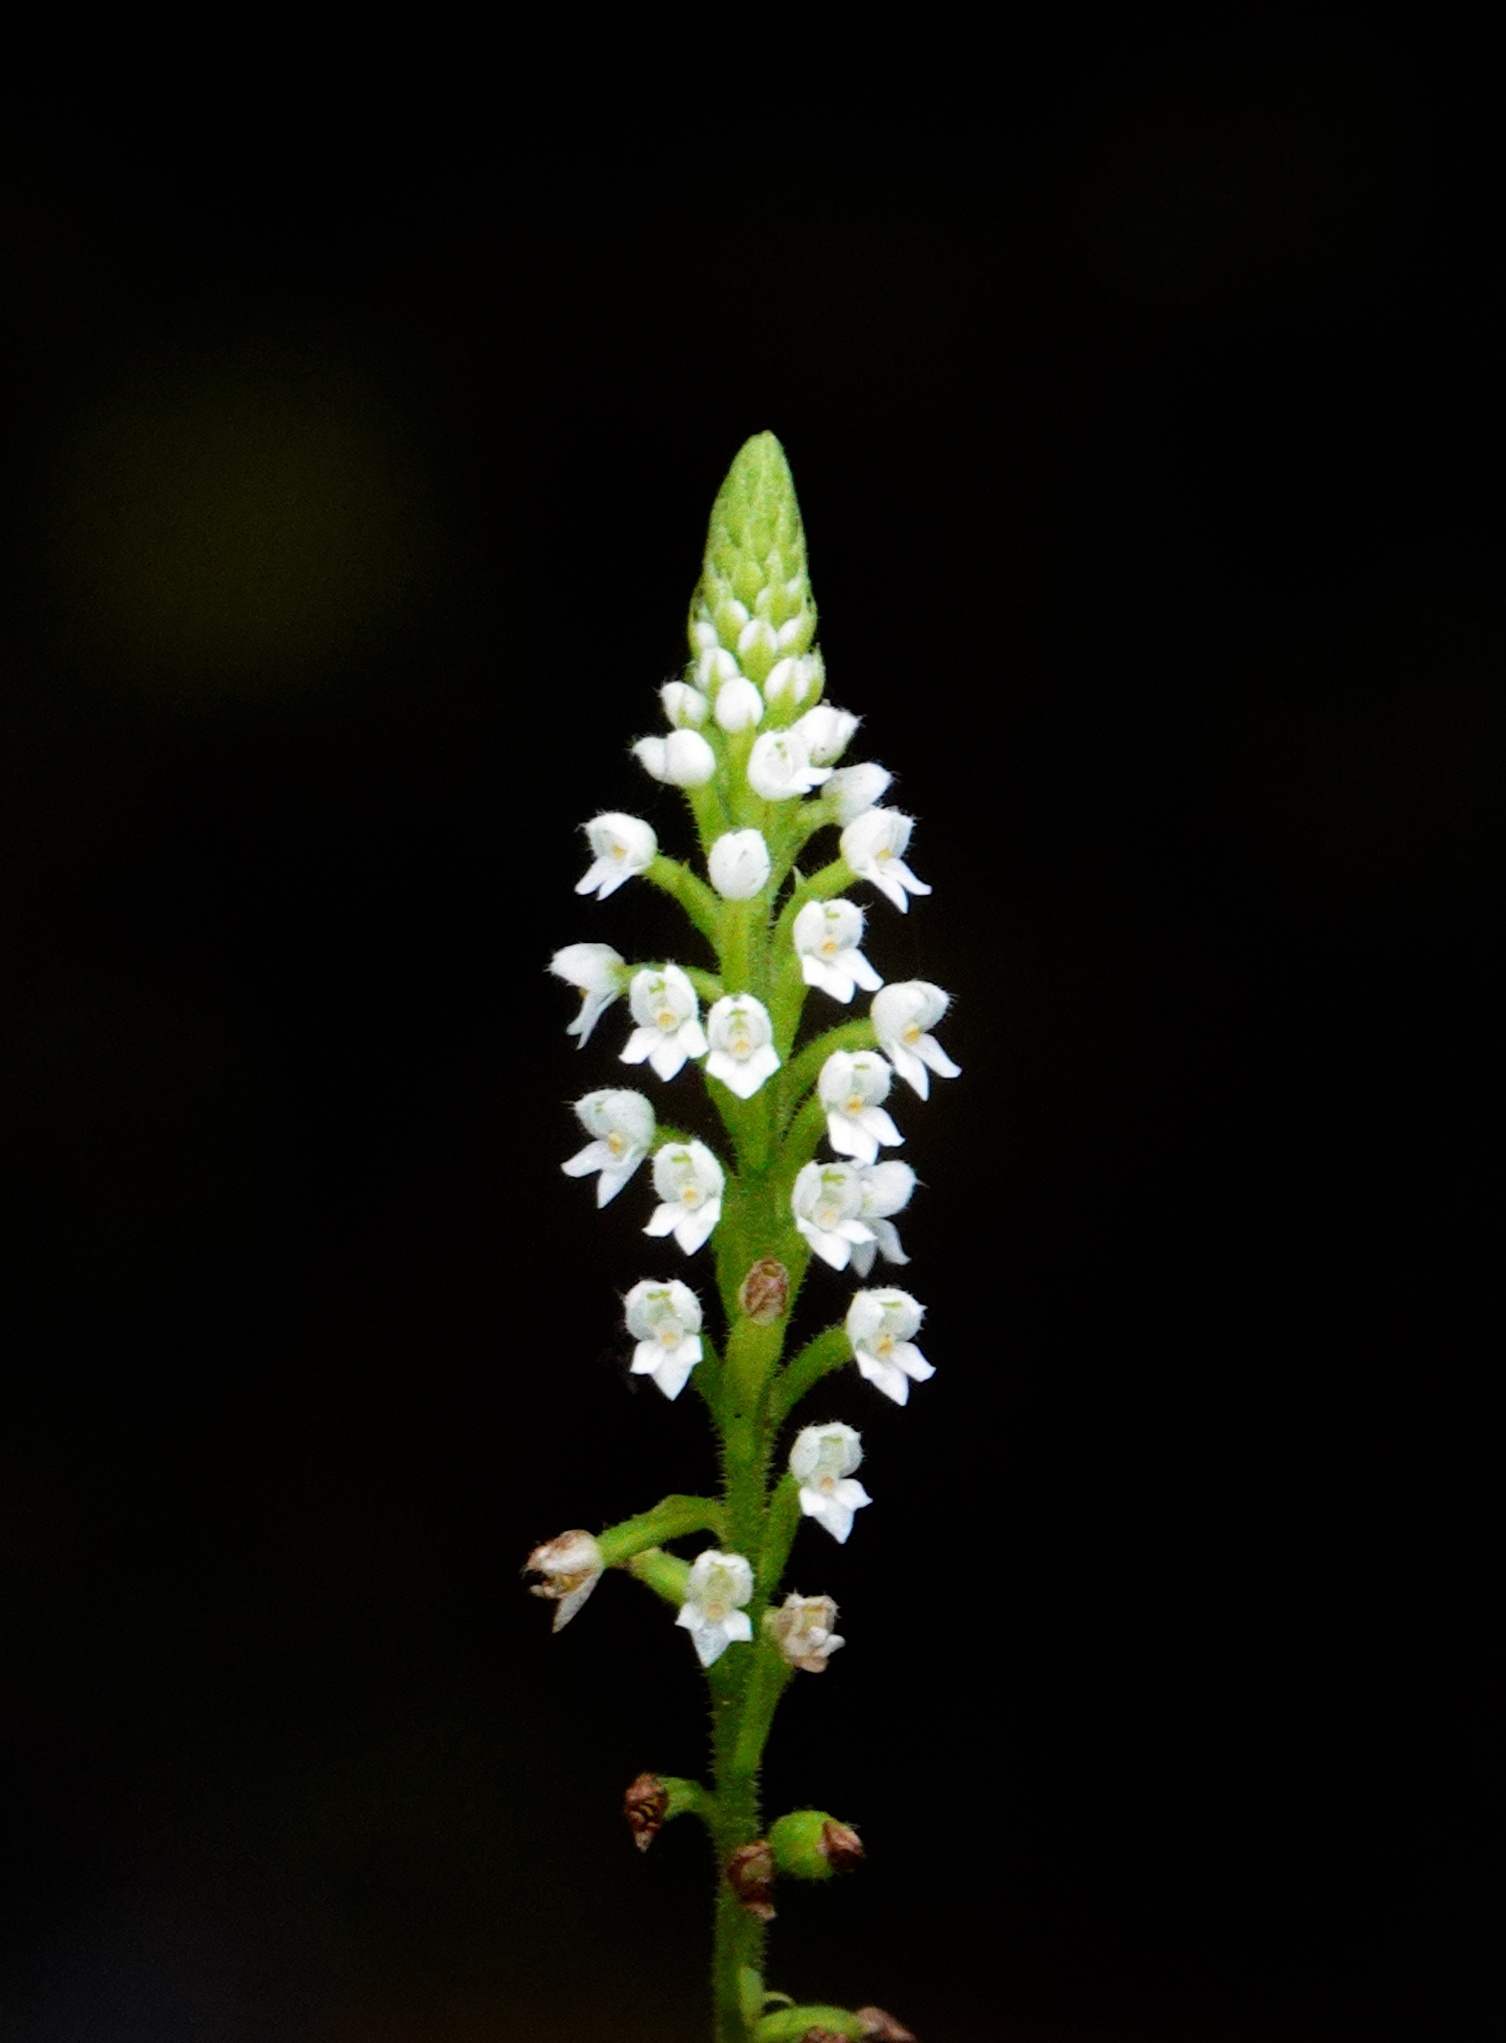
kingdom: Plantae
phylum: Tracheophyta
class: Liliopsida
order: Asparagales
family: Orchidaceae
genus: Ponthieva
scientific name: Ponthieva fertilis
